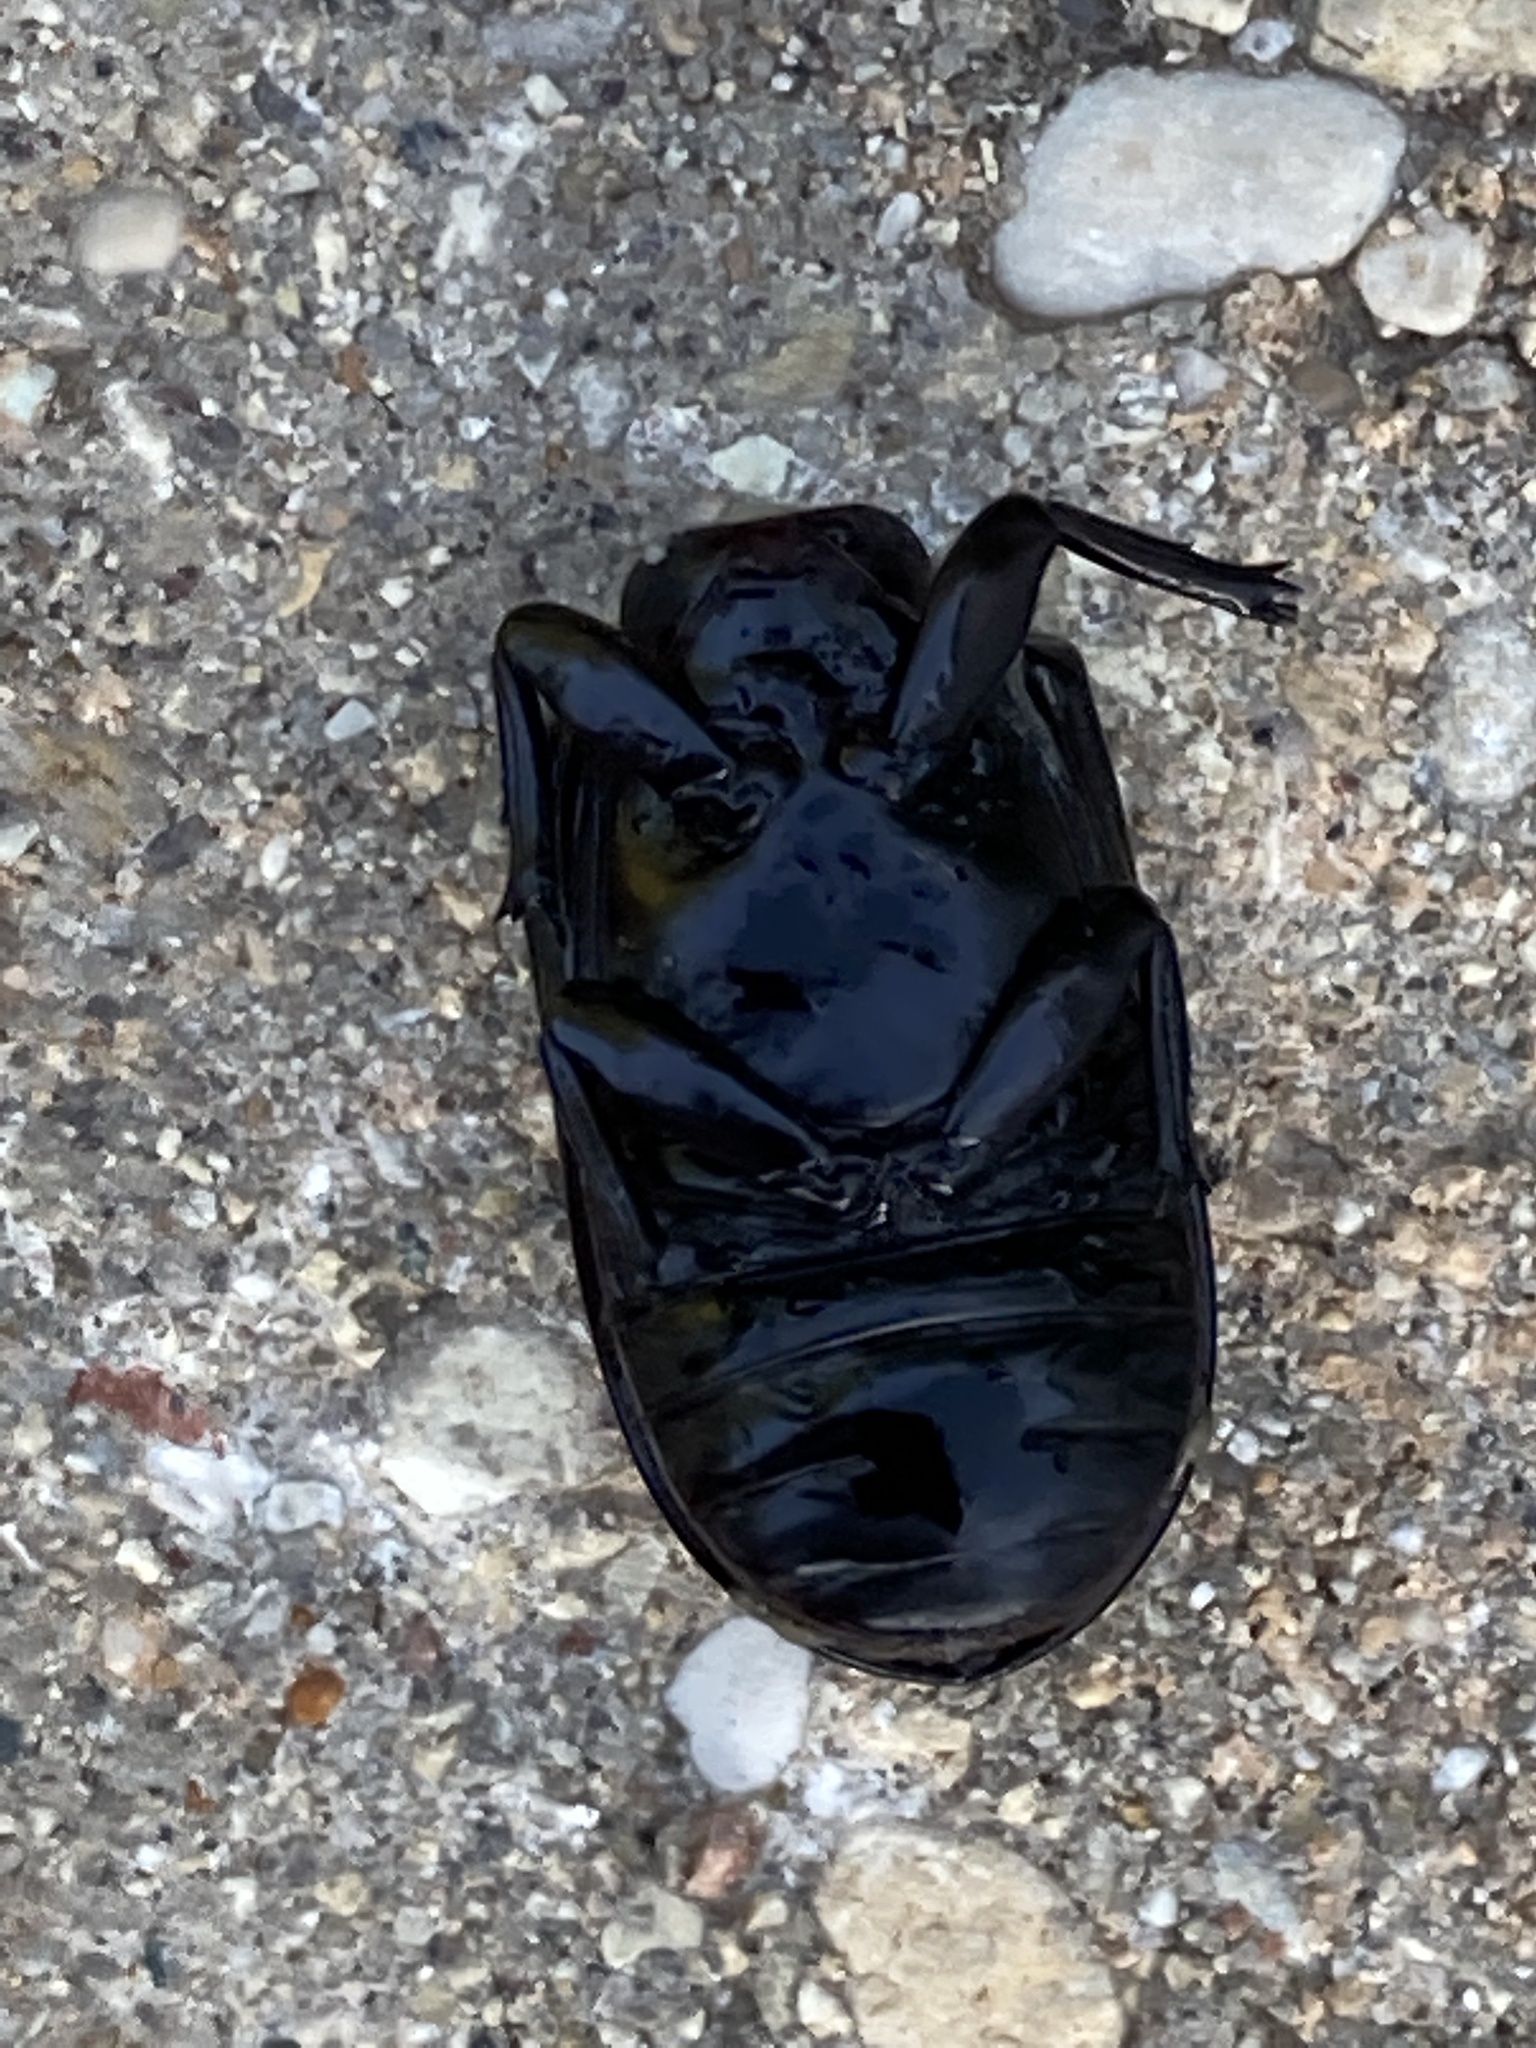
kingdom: Animalia
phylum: Arthropoda
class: Insecta
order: Coleoptera
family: Passalidae
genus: Odontotaenius
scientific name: Odontotaenius disjunctus
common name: Patent leather beetle
